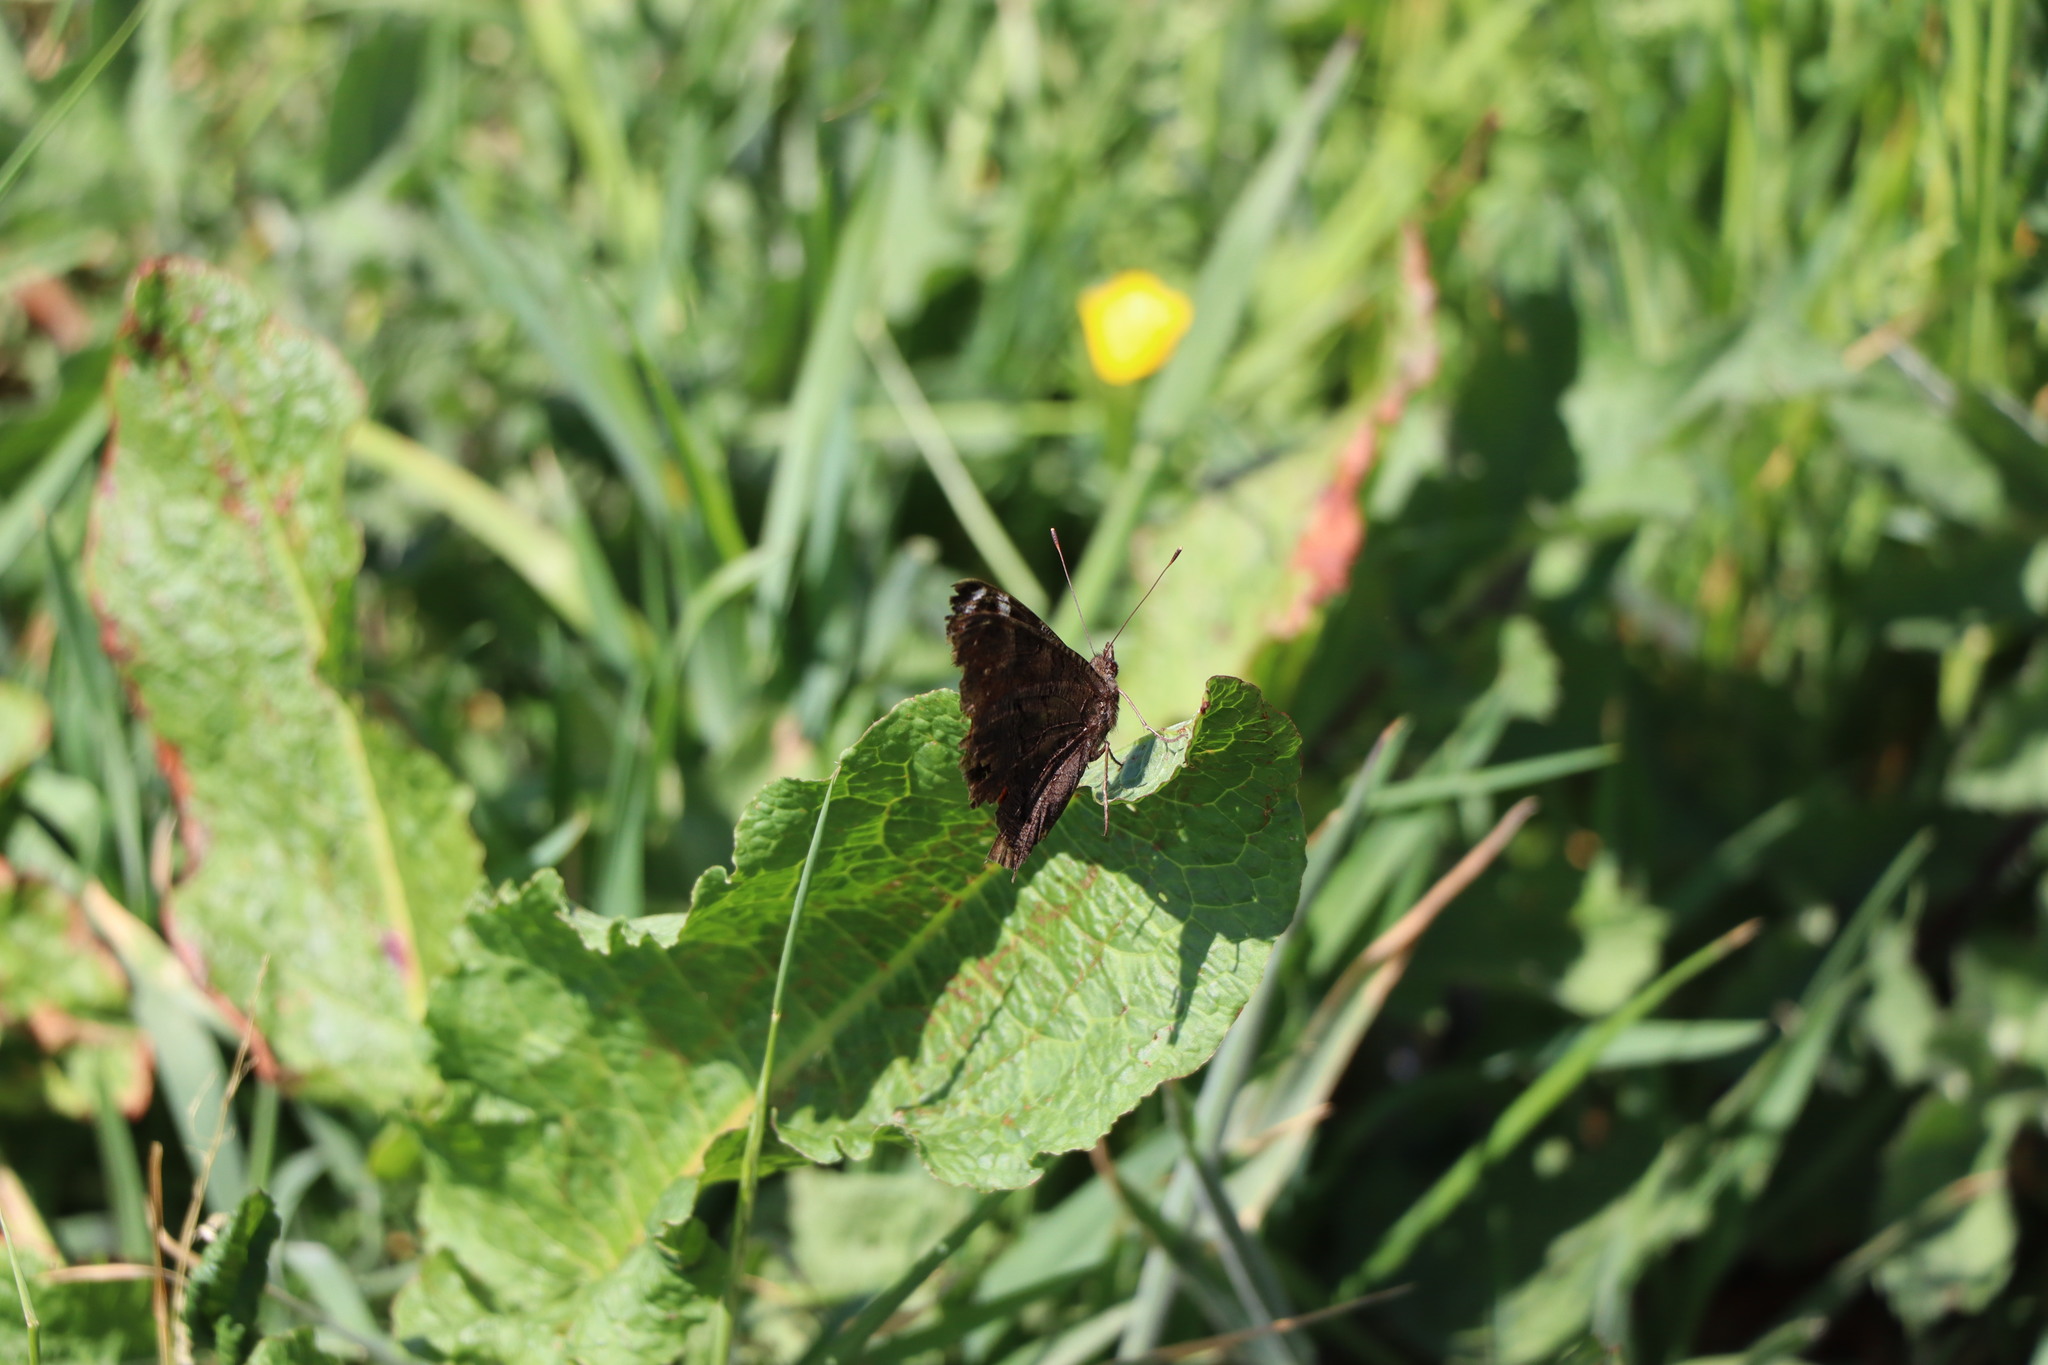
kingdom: Animalia
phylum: Arthropoda
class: Insecta
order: Lepidoptera
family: Nymphalidae
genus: Aglais
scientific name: Aglais io
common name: Peacock
